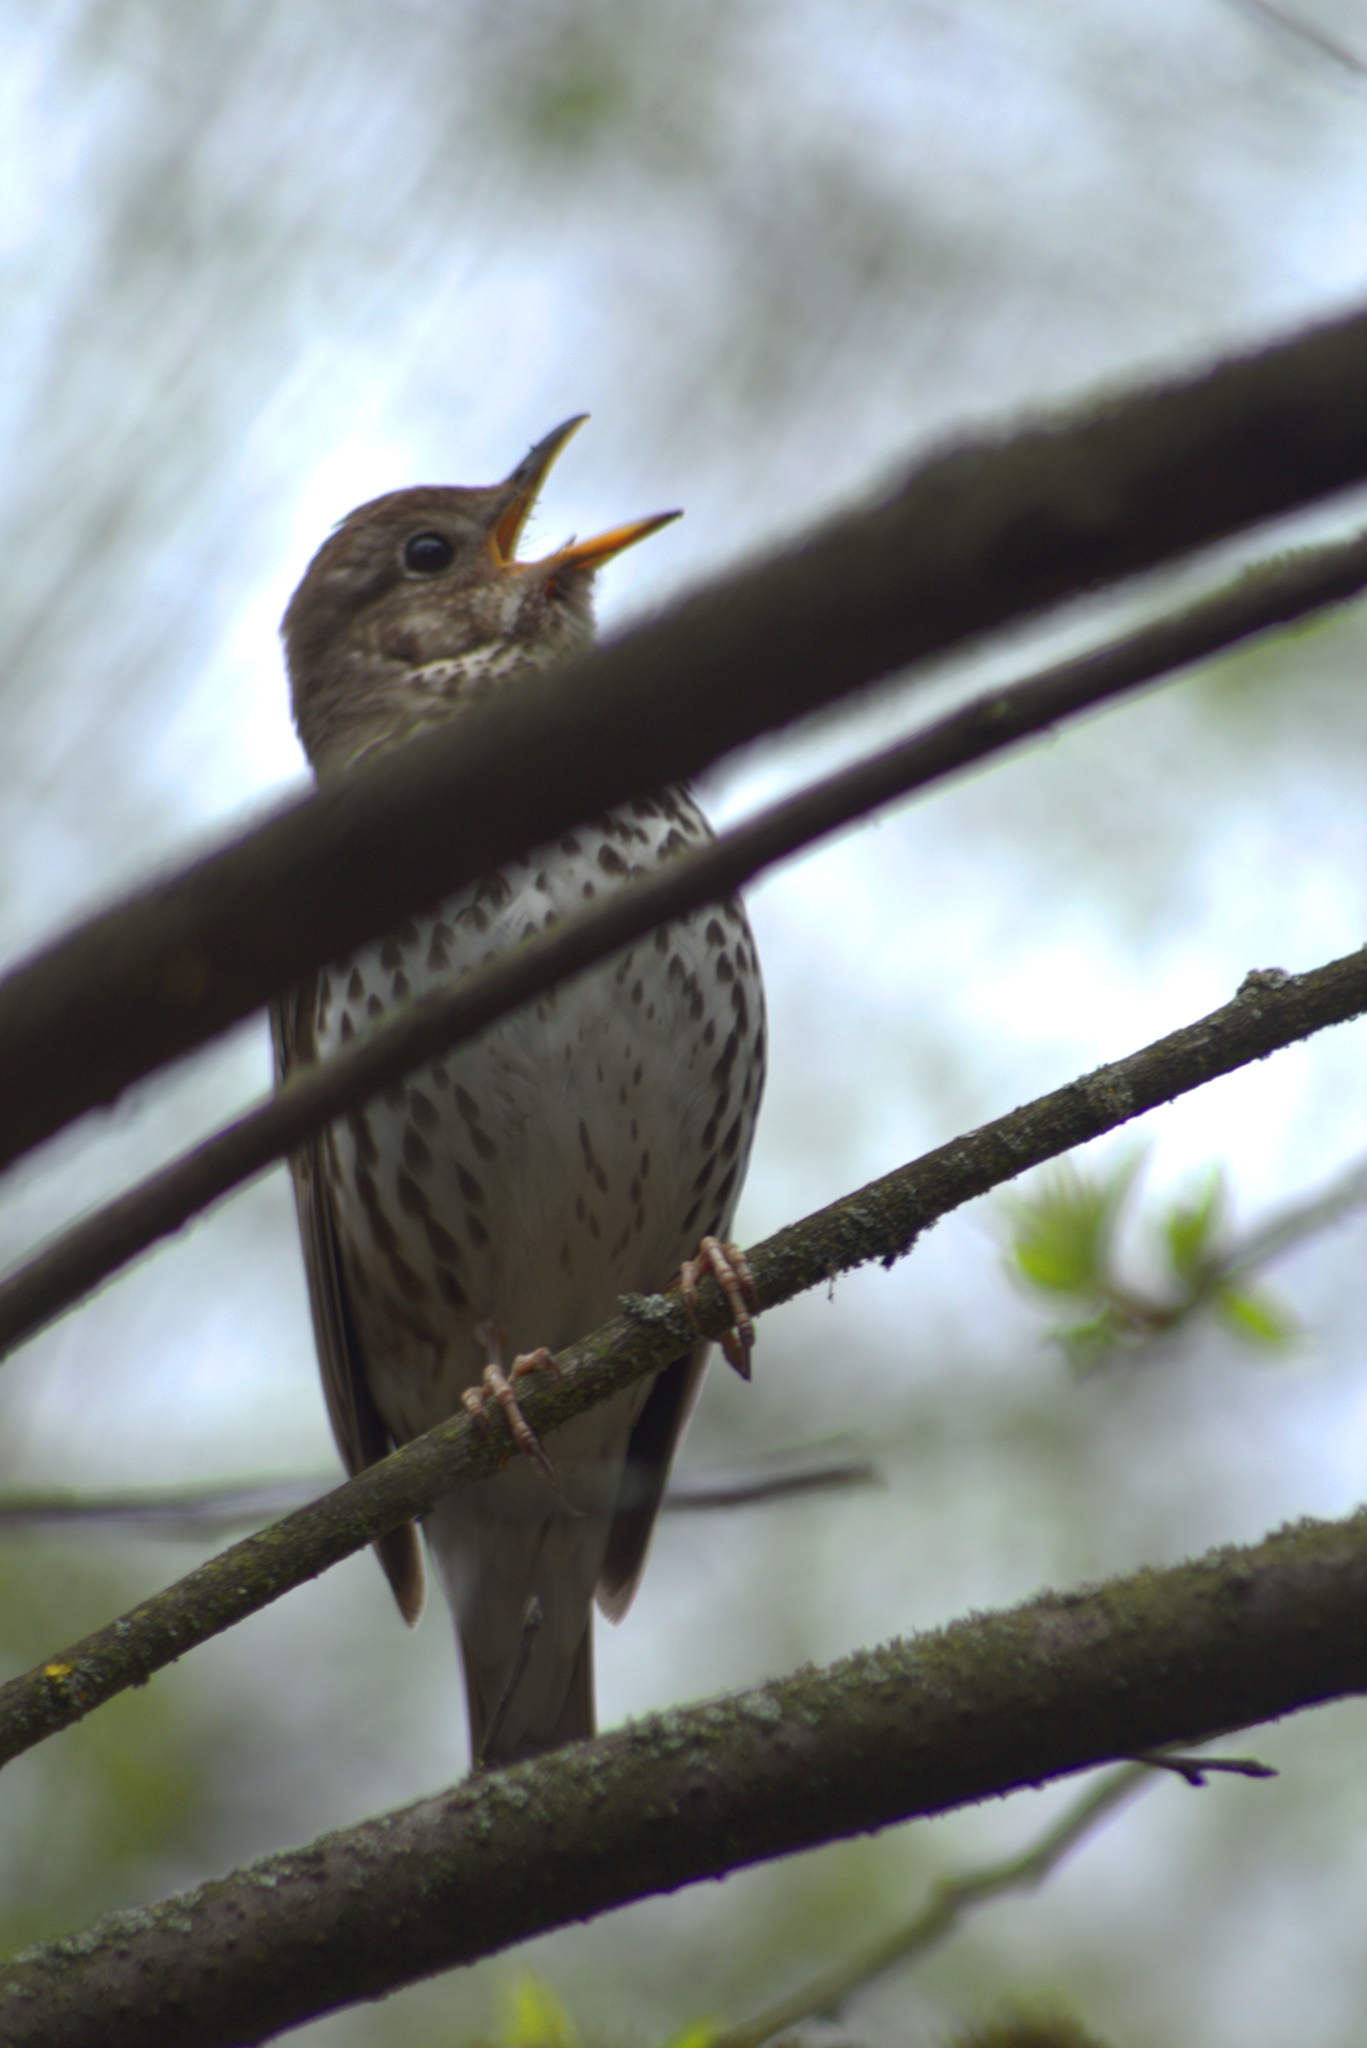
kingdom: Animalia
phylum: Chordata
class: Aves
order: Passeriformes
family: Turdidae
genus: Turdus
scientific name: Turdus philomelos
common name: Song thrush
